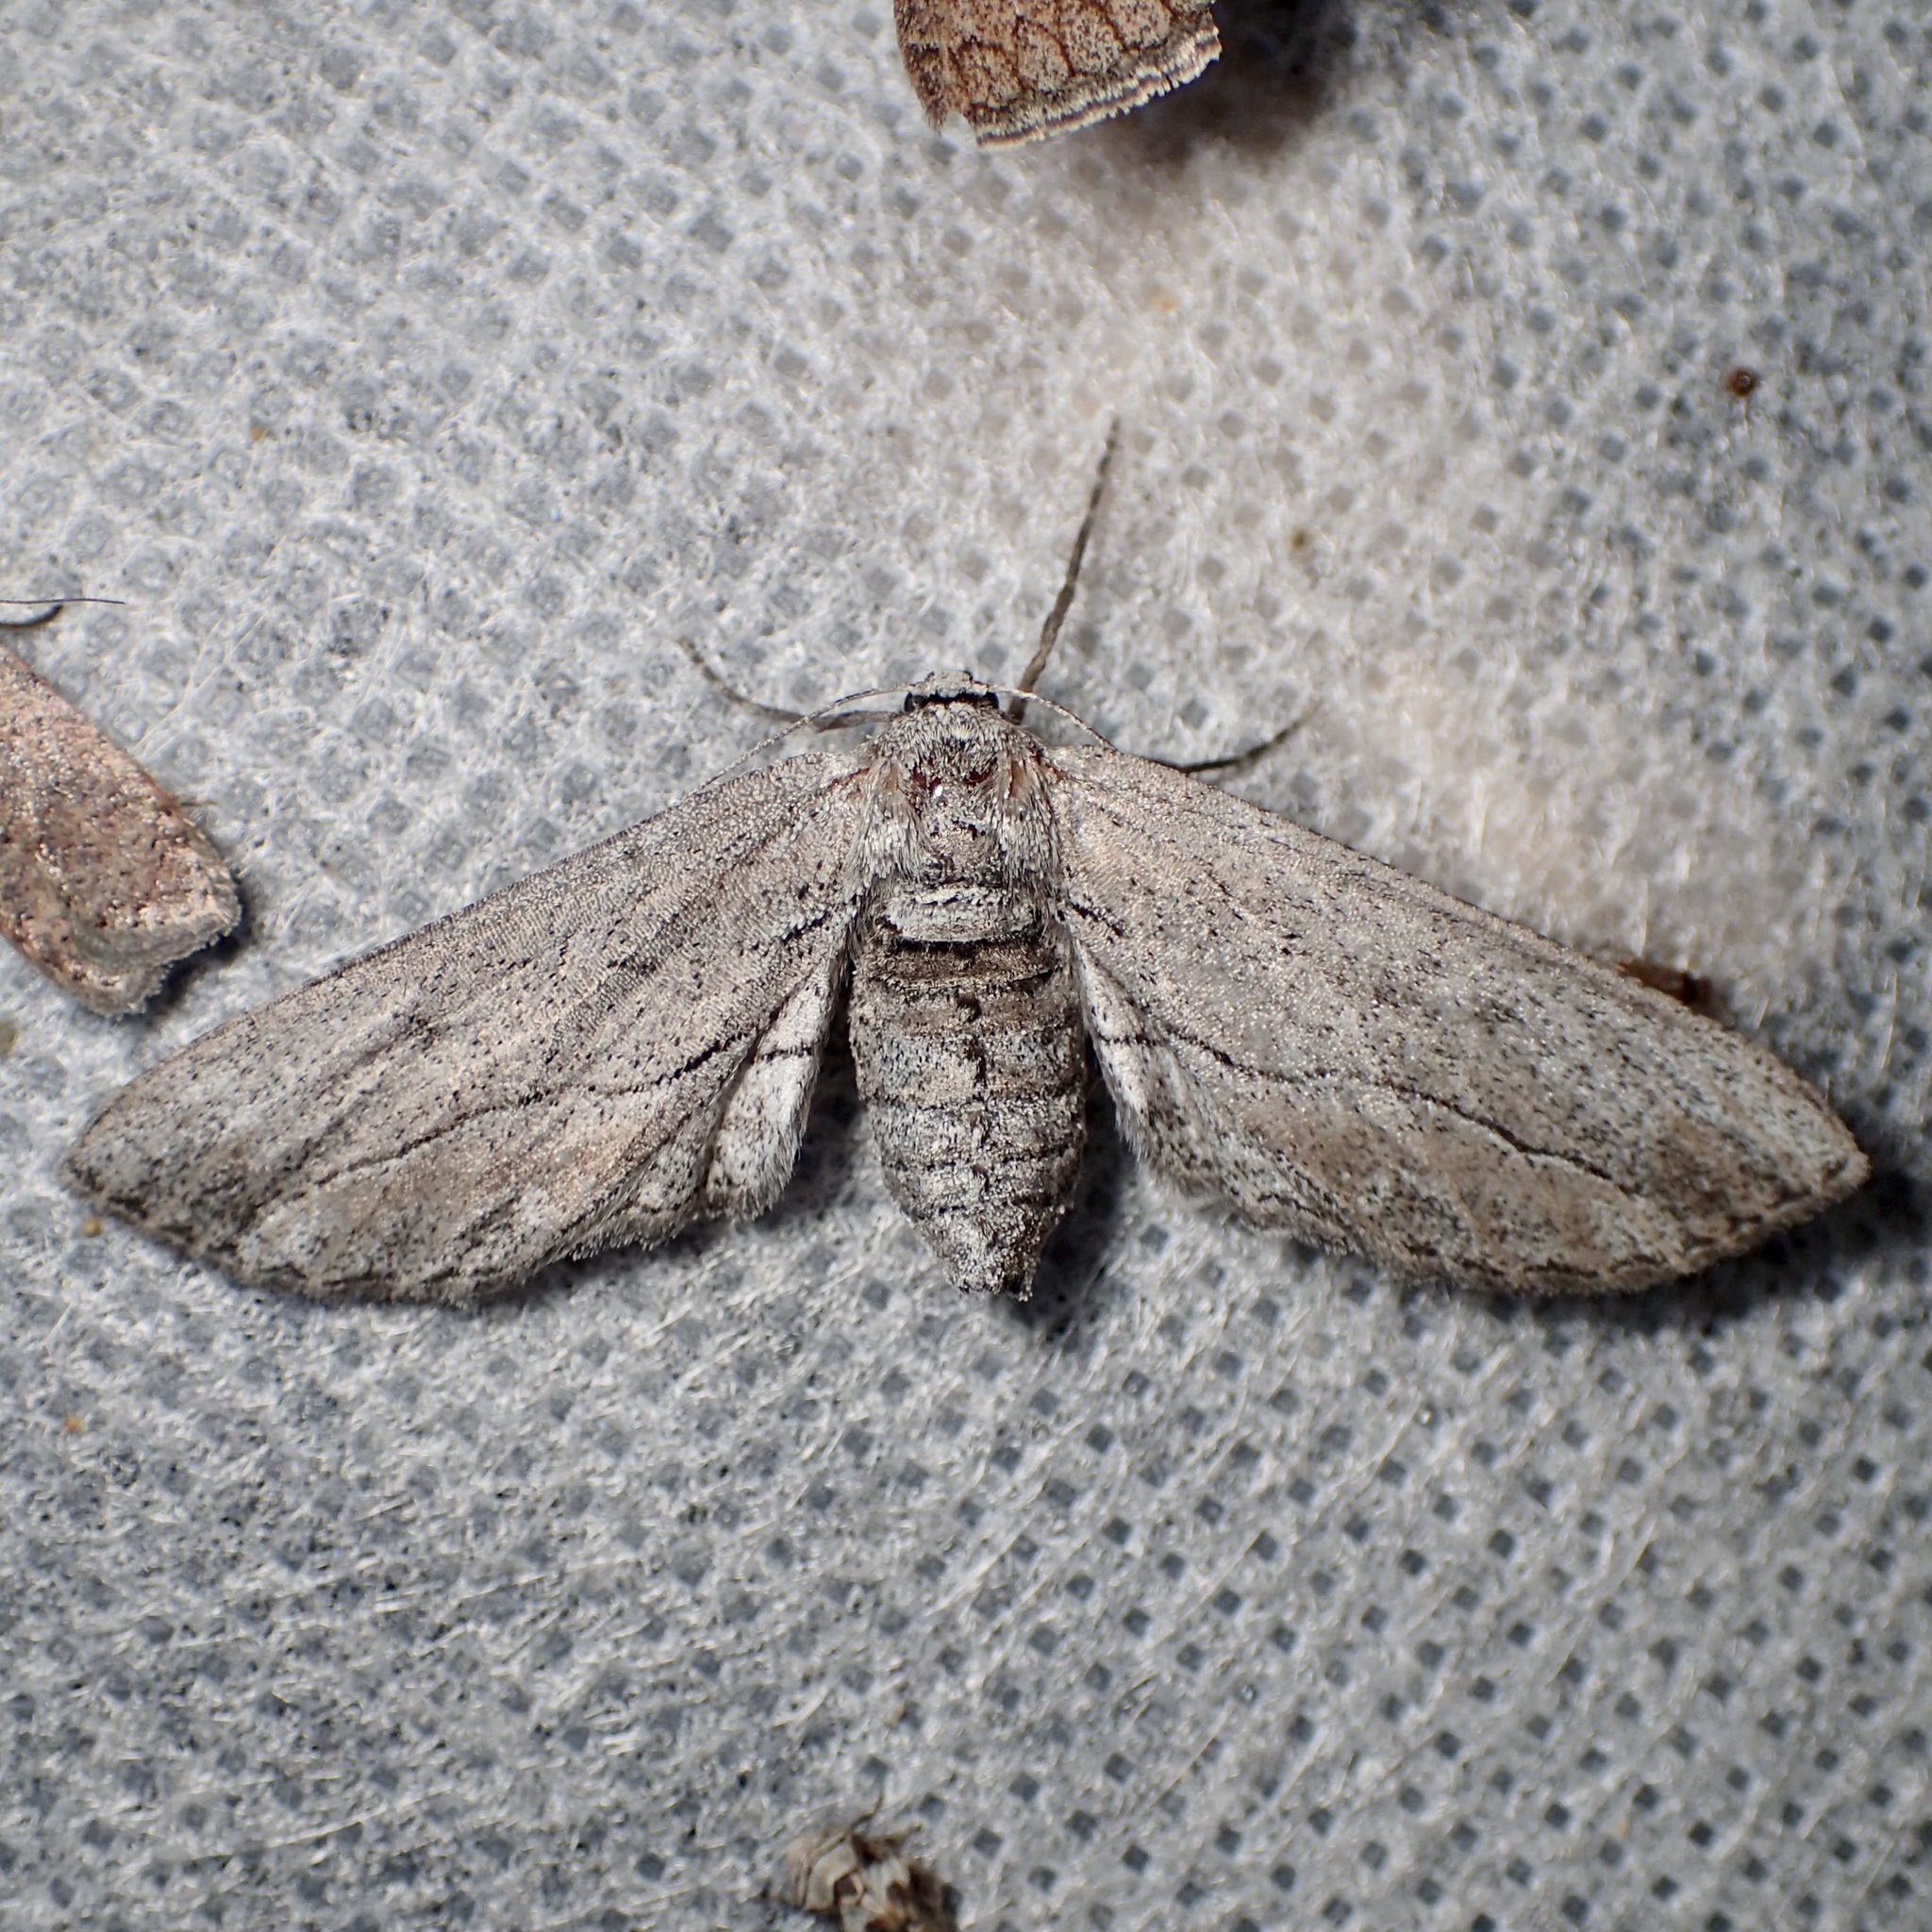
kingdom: Animalia
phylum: Arthropoda
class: Insecta
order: Lepidoptera
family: Geometridae
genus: Holochroa
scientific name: Holochroa dissociarius
